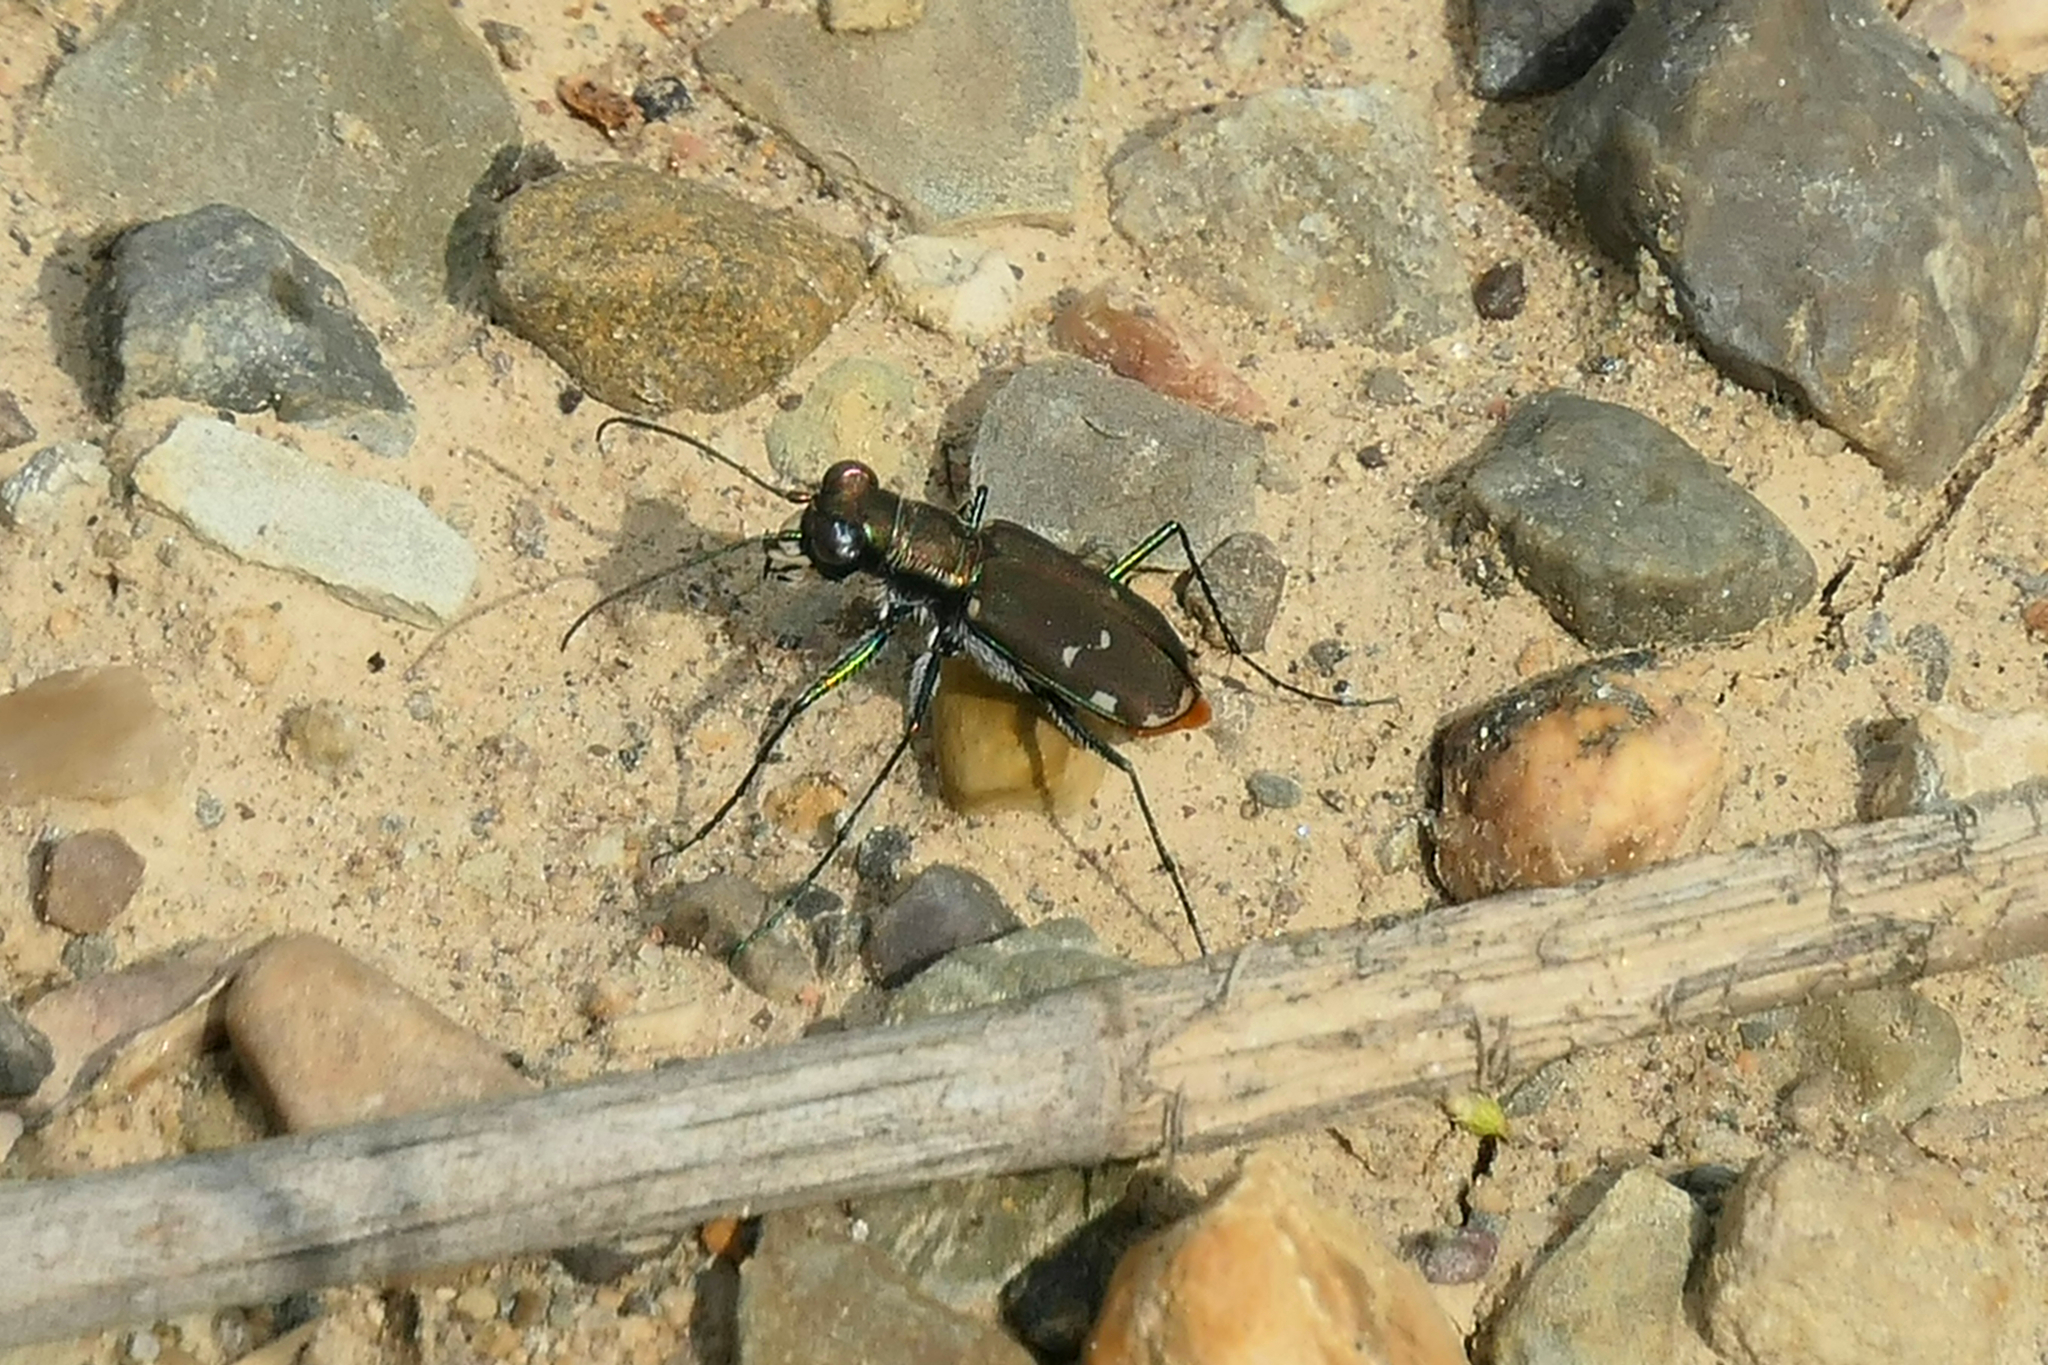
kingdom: Animalia
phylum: Arthropoda
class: Insecta
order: Coleoptera
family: Carabidae
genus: Cicindela
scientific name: Cicindela rufiventris
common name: Eastern red-bellied tiger beetle
